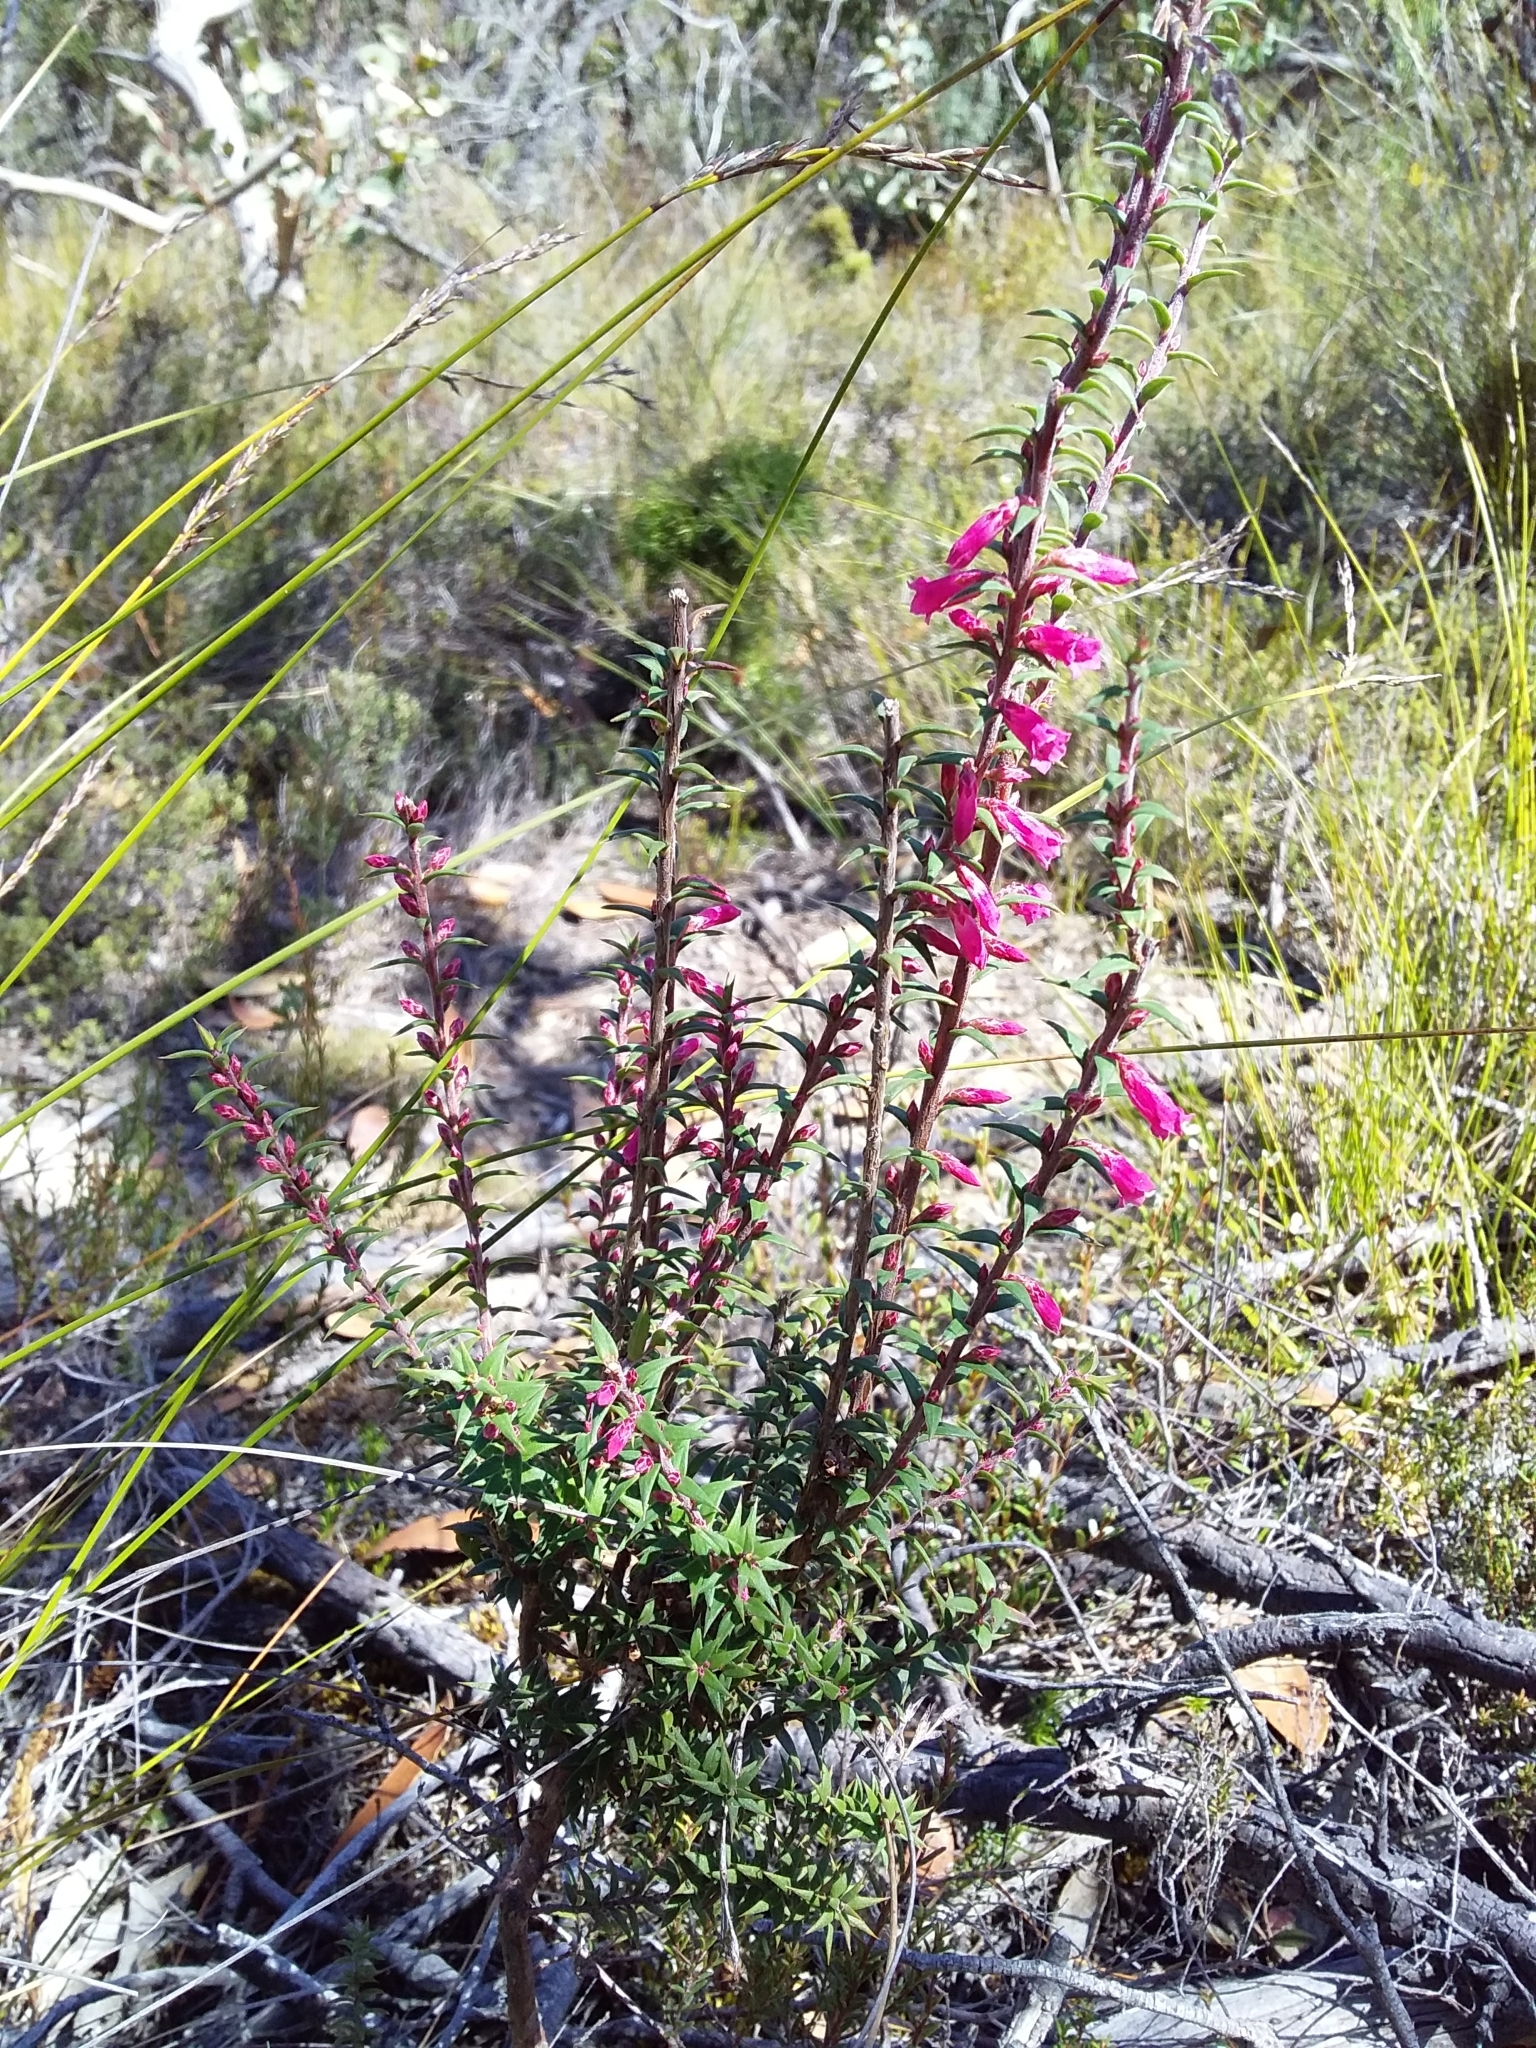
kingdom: Plantae
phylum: Tracheophyta
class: Magnoliopsida
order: Ericales
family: Ericaceae
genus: Epacris
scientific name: Epacris impressa
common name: Common-heath
